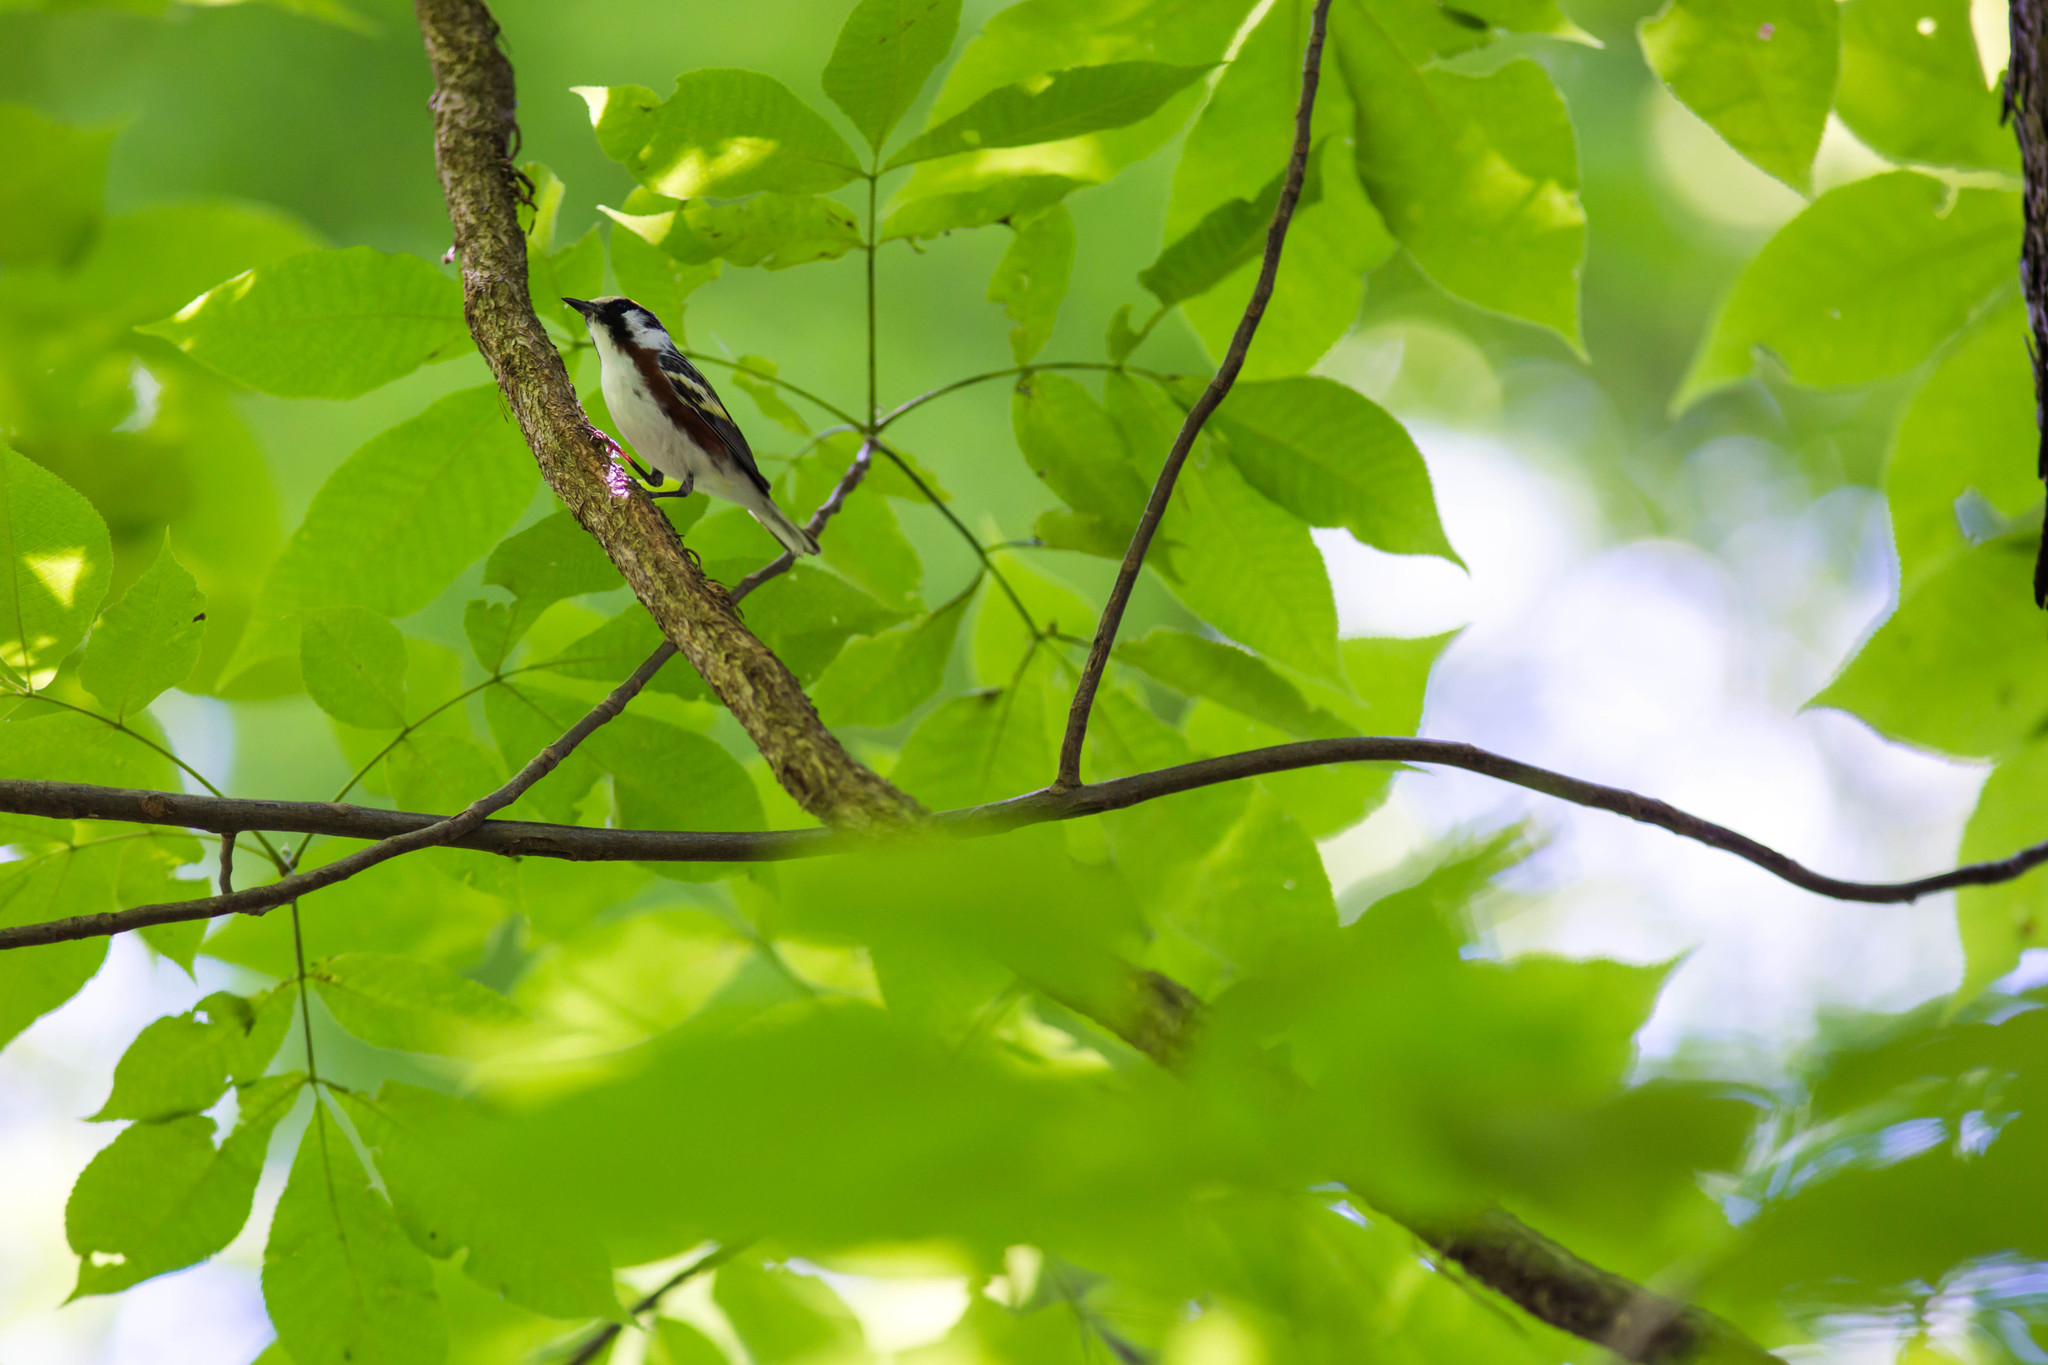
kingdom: Animalia
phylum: Chordata
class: Aves
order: Passeriformes
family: Parulidae
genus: Setophaga
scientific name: Setophaga pensylvanica
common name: Chestnut-sided warbler
